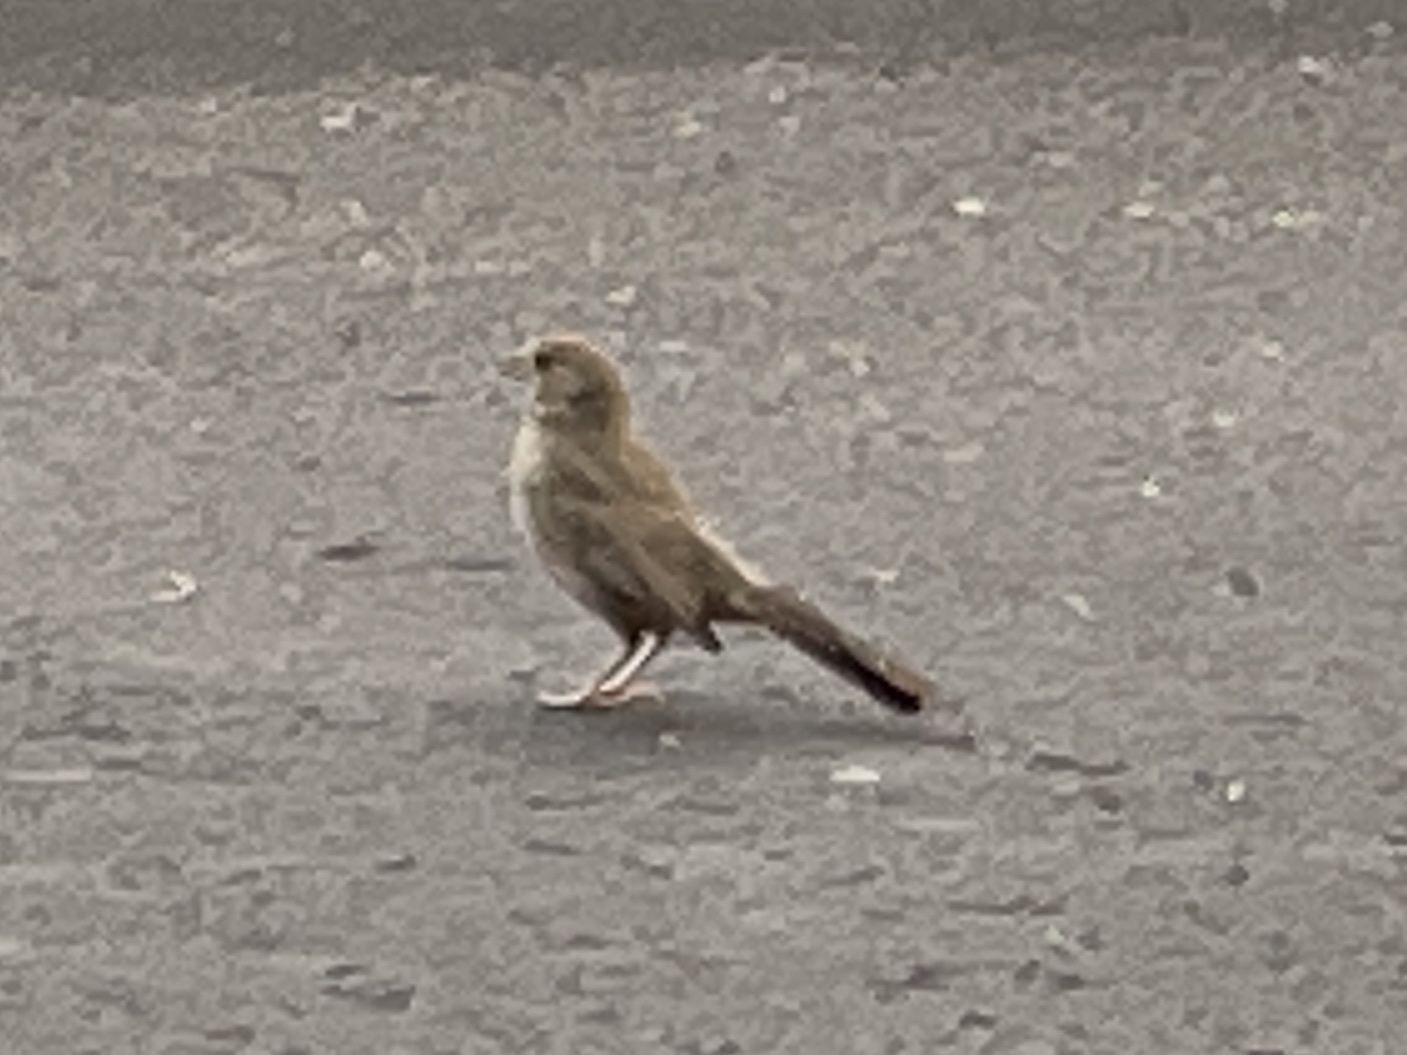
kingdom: Animalia
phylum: Chordata
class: Aves
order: Passeriformes
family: Passerellidae
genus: Melozone
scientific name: Melozone fusca
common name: Canyon towhee
